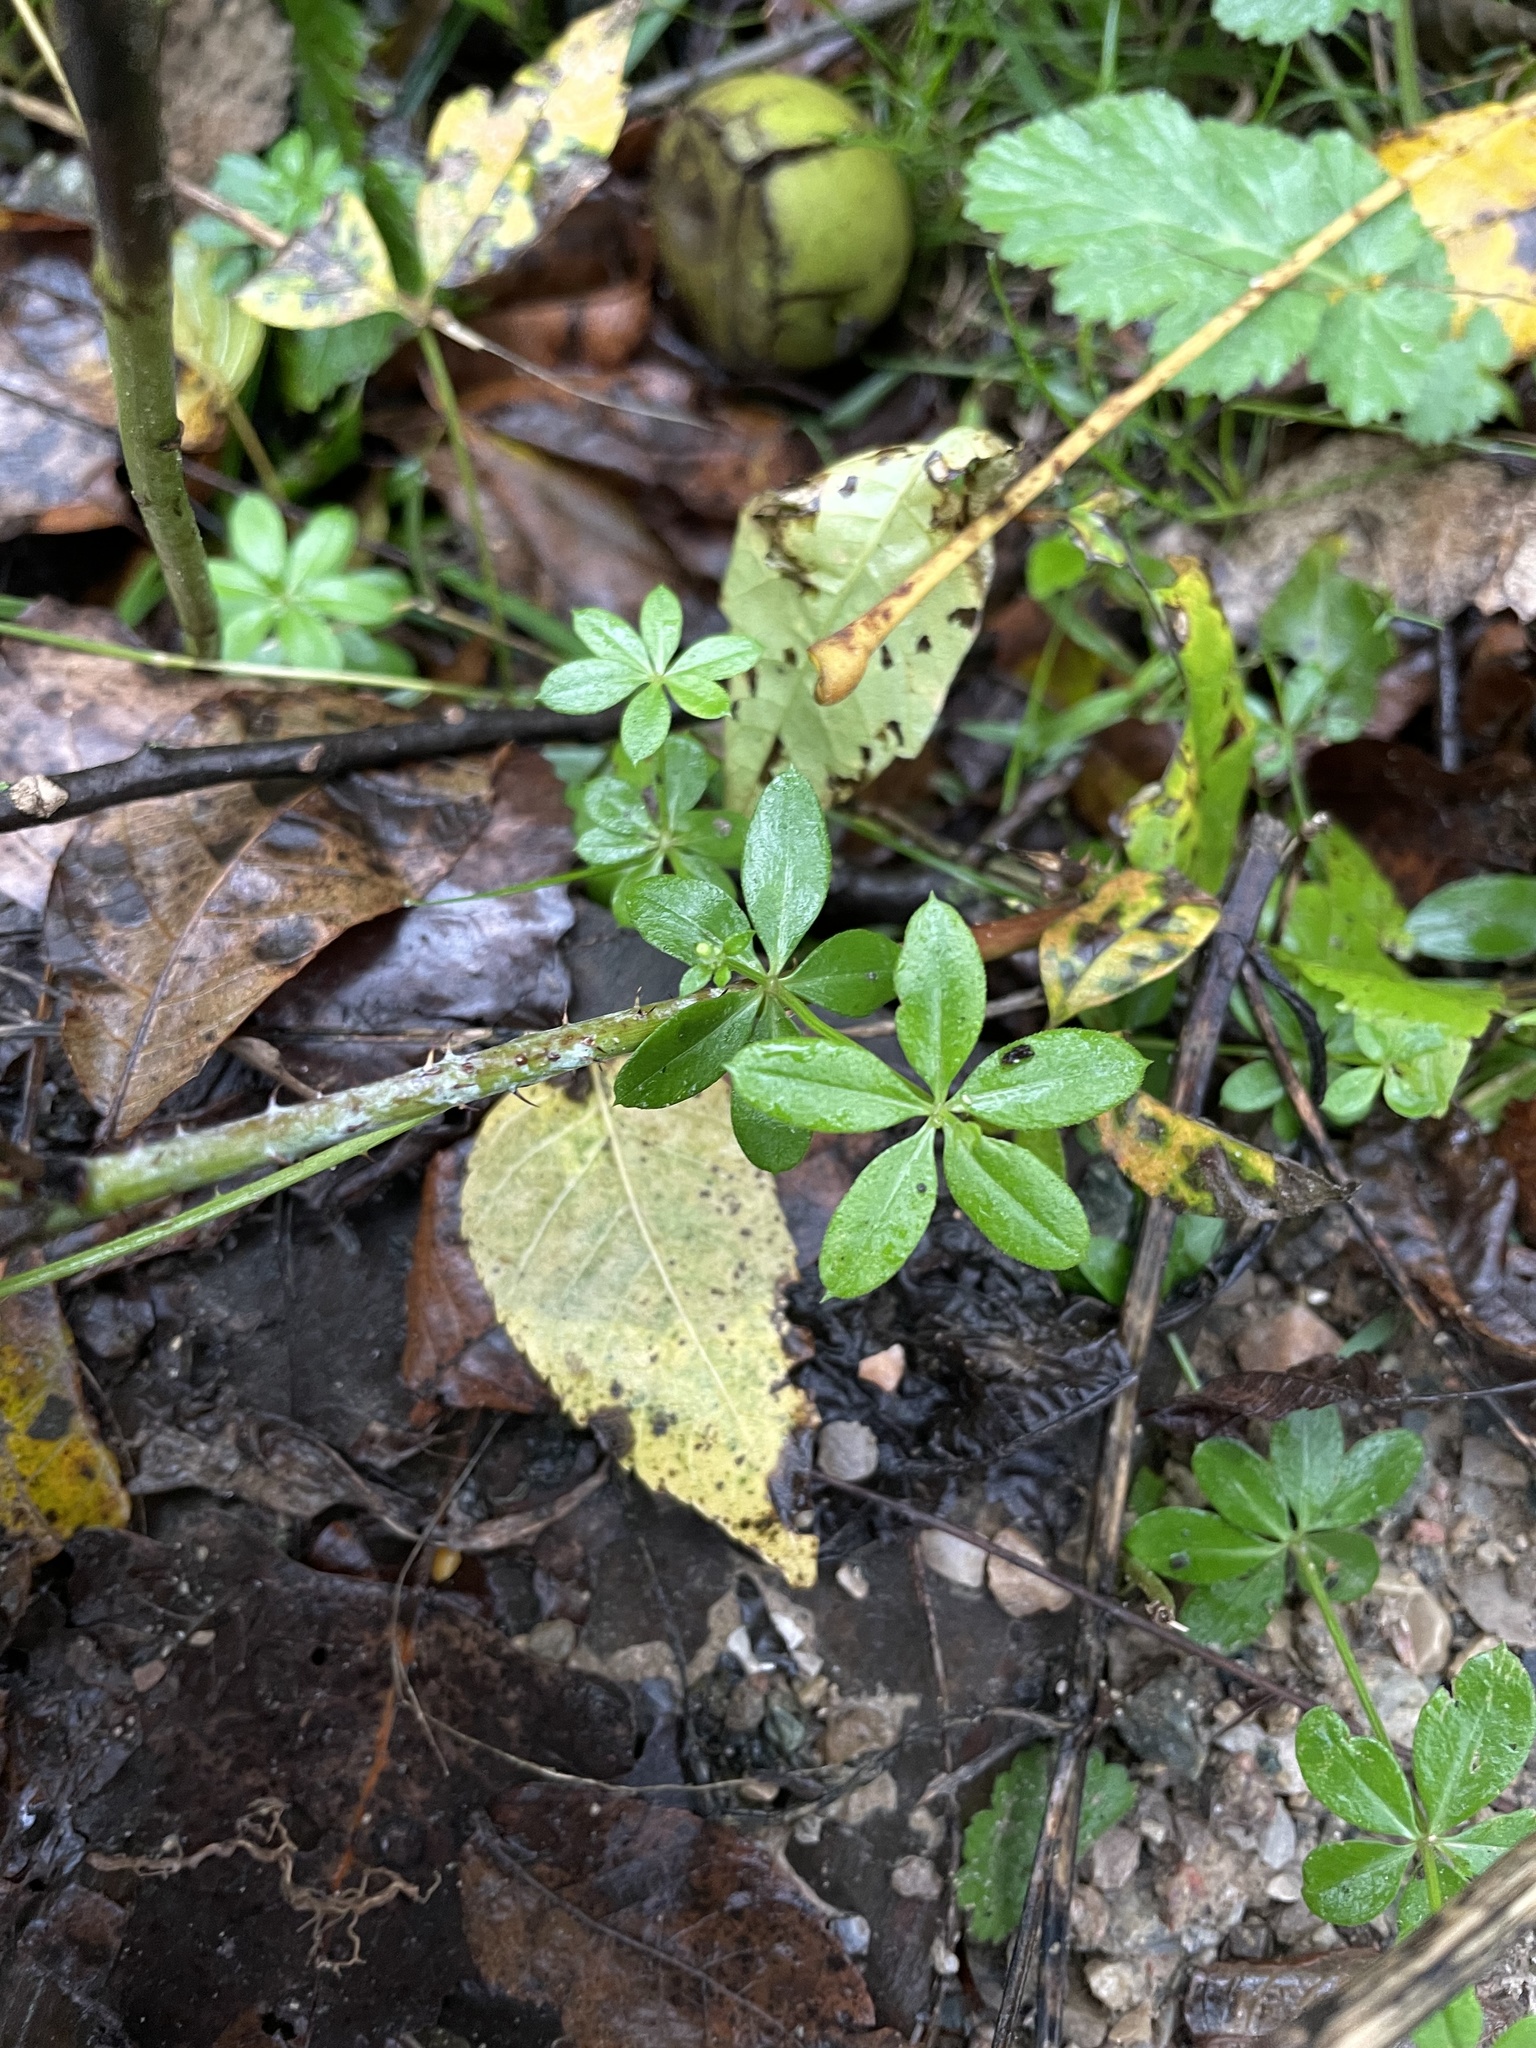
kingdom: Plantae
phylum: Tracheophyta
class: Magnoliopsida
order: Gentianales
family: Rubiaceae
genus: Galium
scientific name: Galium triflorum
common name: Fragrant bedstraw
